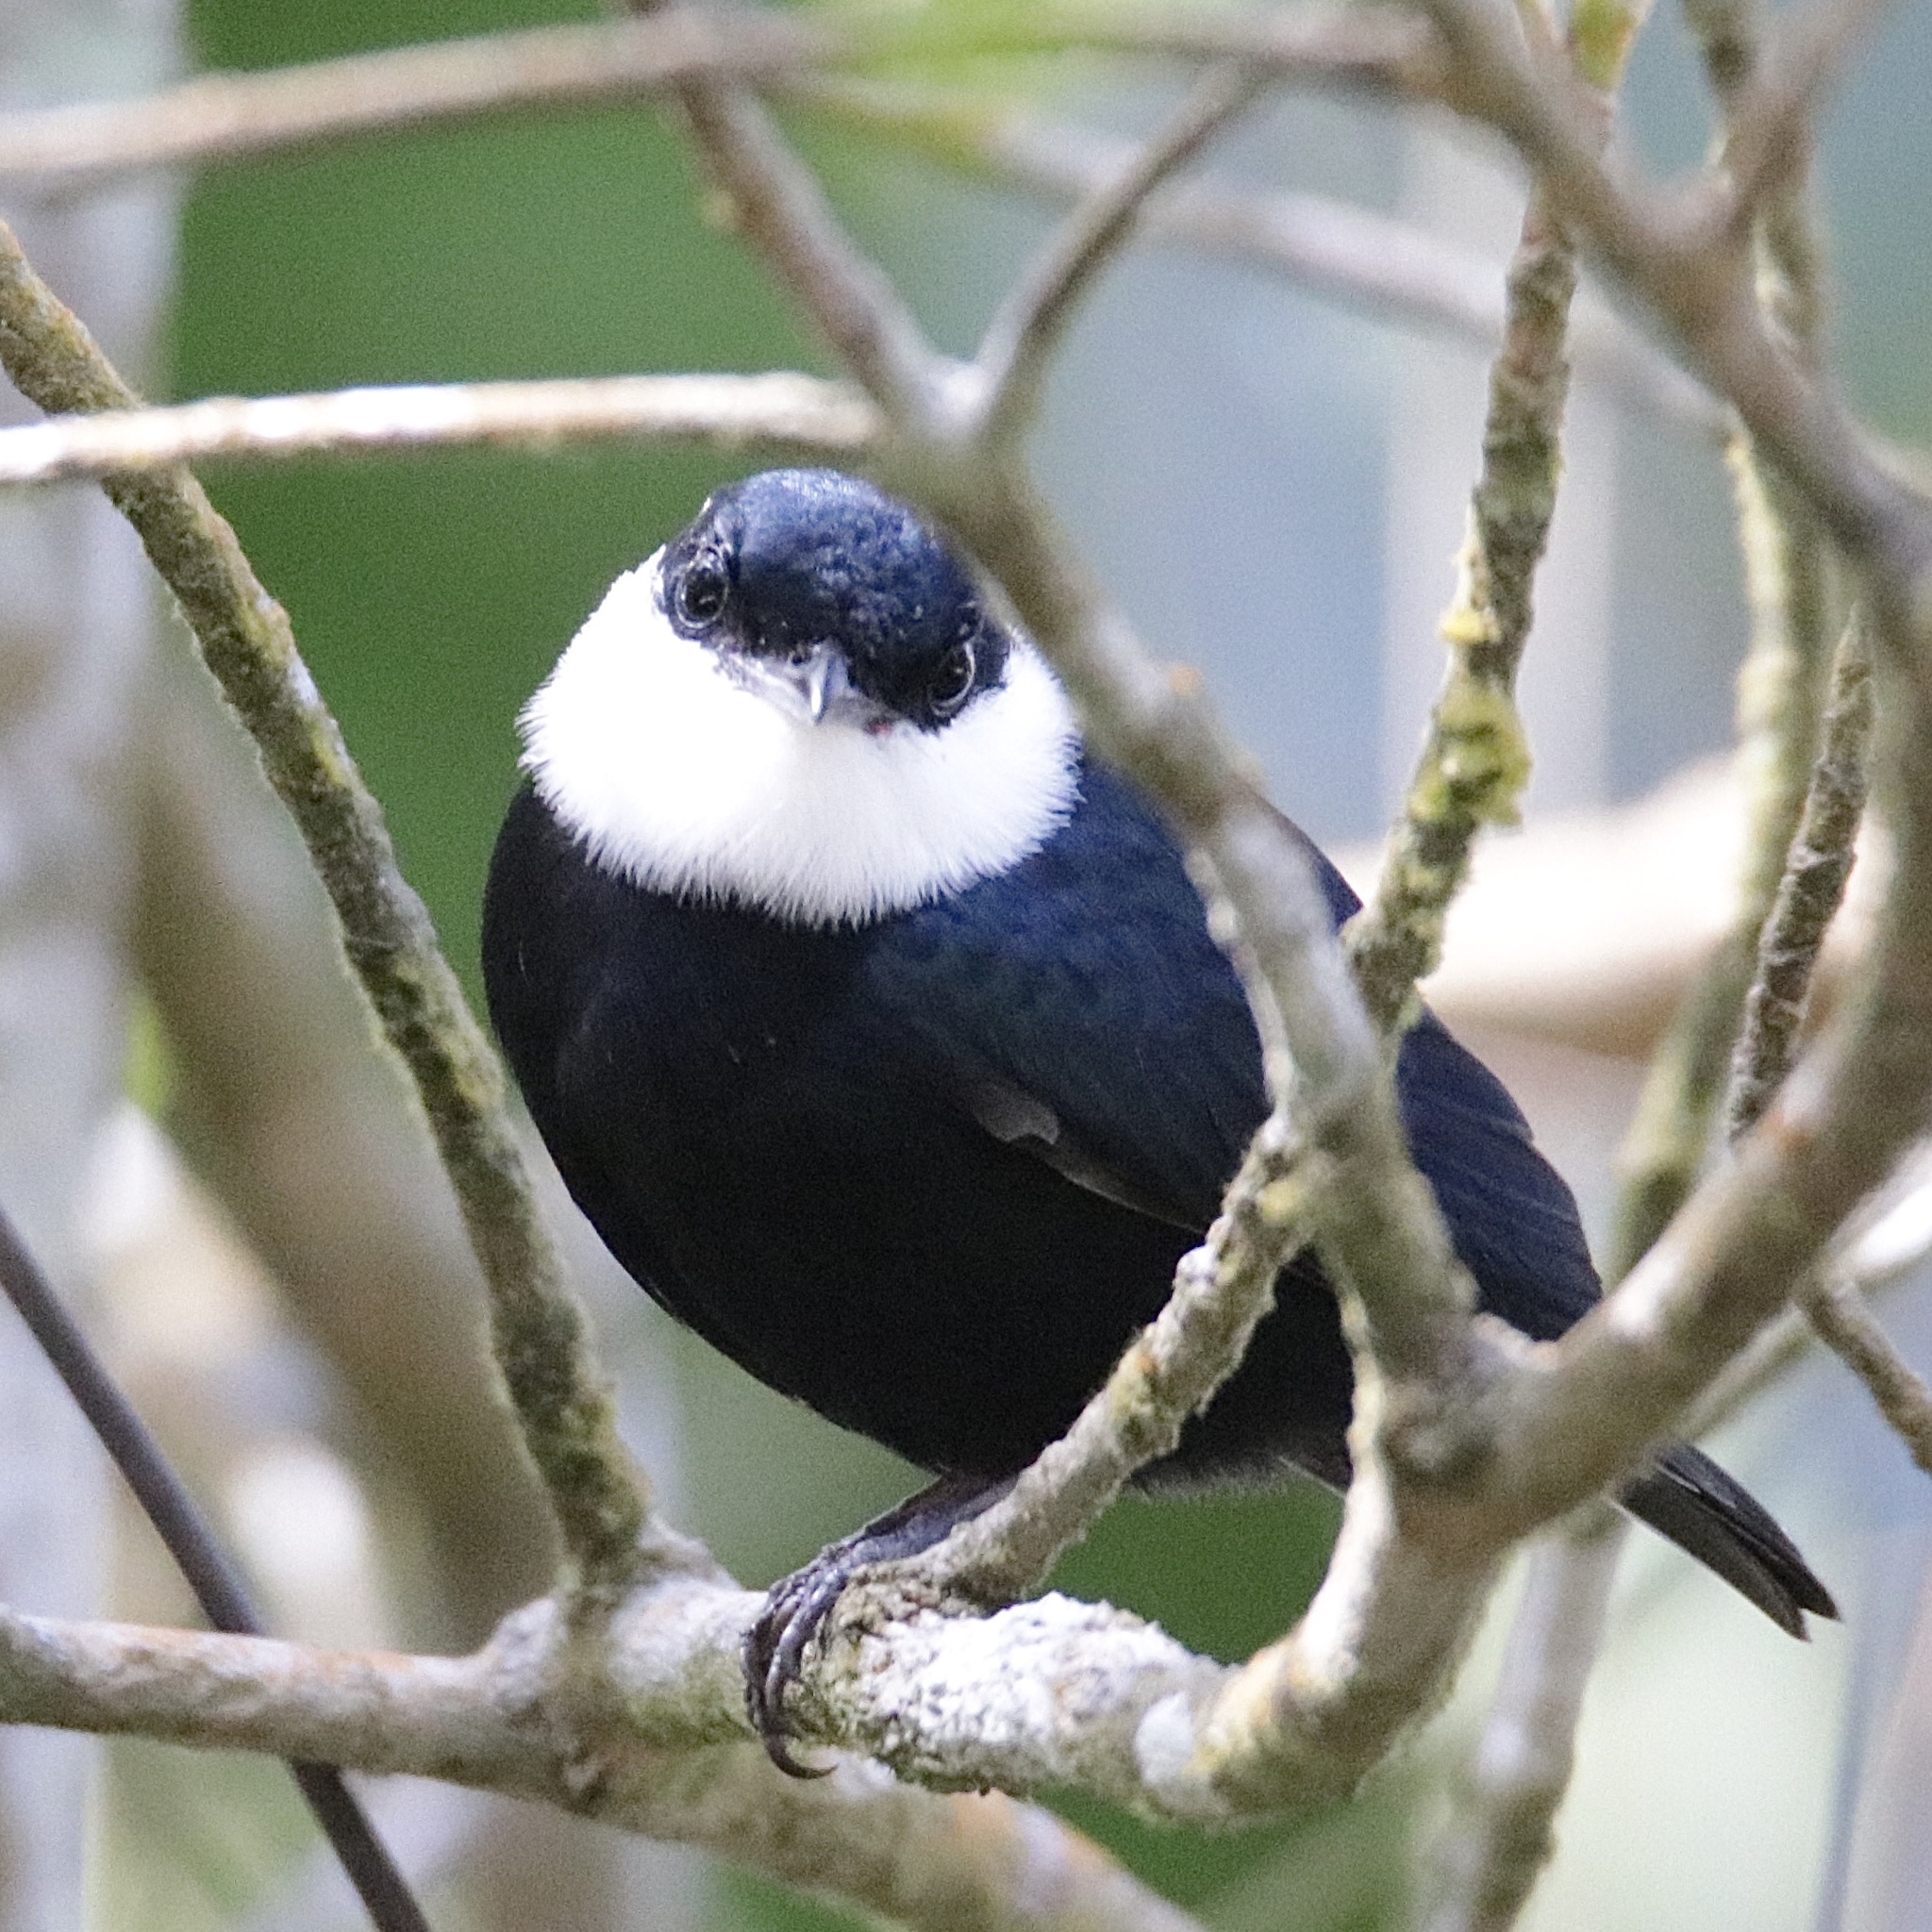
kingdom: Animalia
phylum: Chordata
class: Aves
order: Passeriformes
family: Pipridae
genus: Corapipo
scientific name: Corapipo altera
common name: White-ruffed manakin
